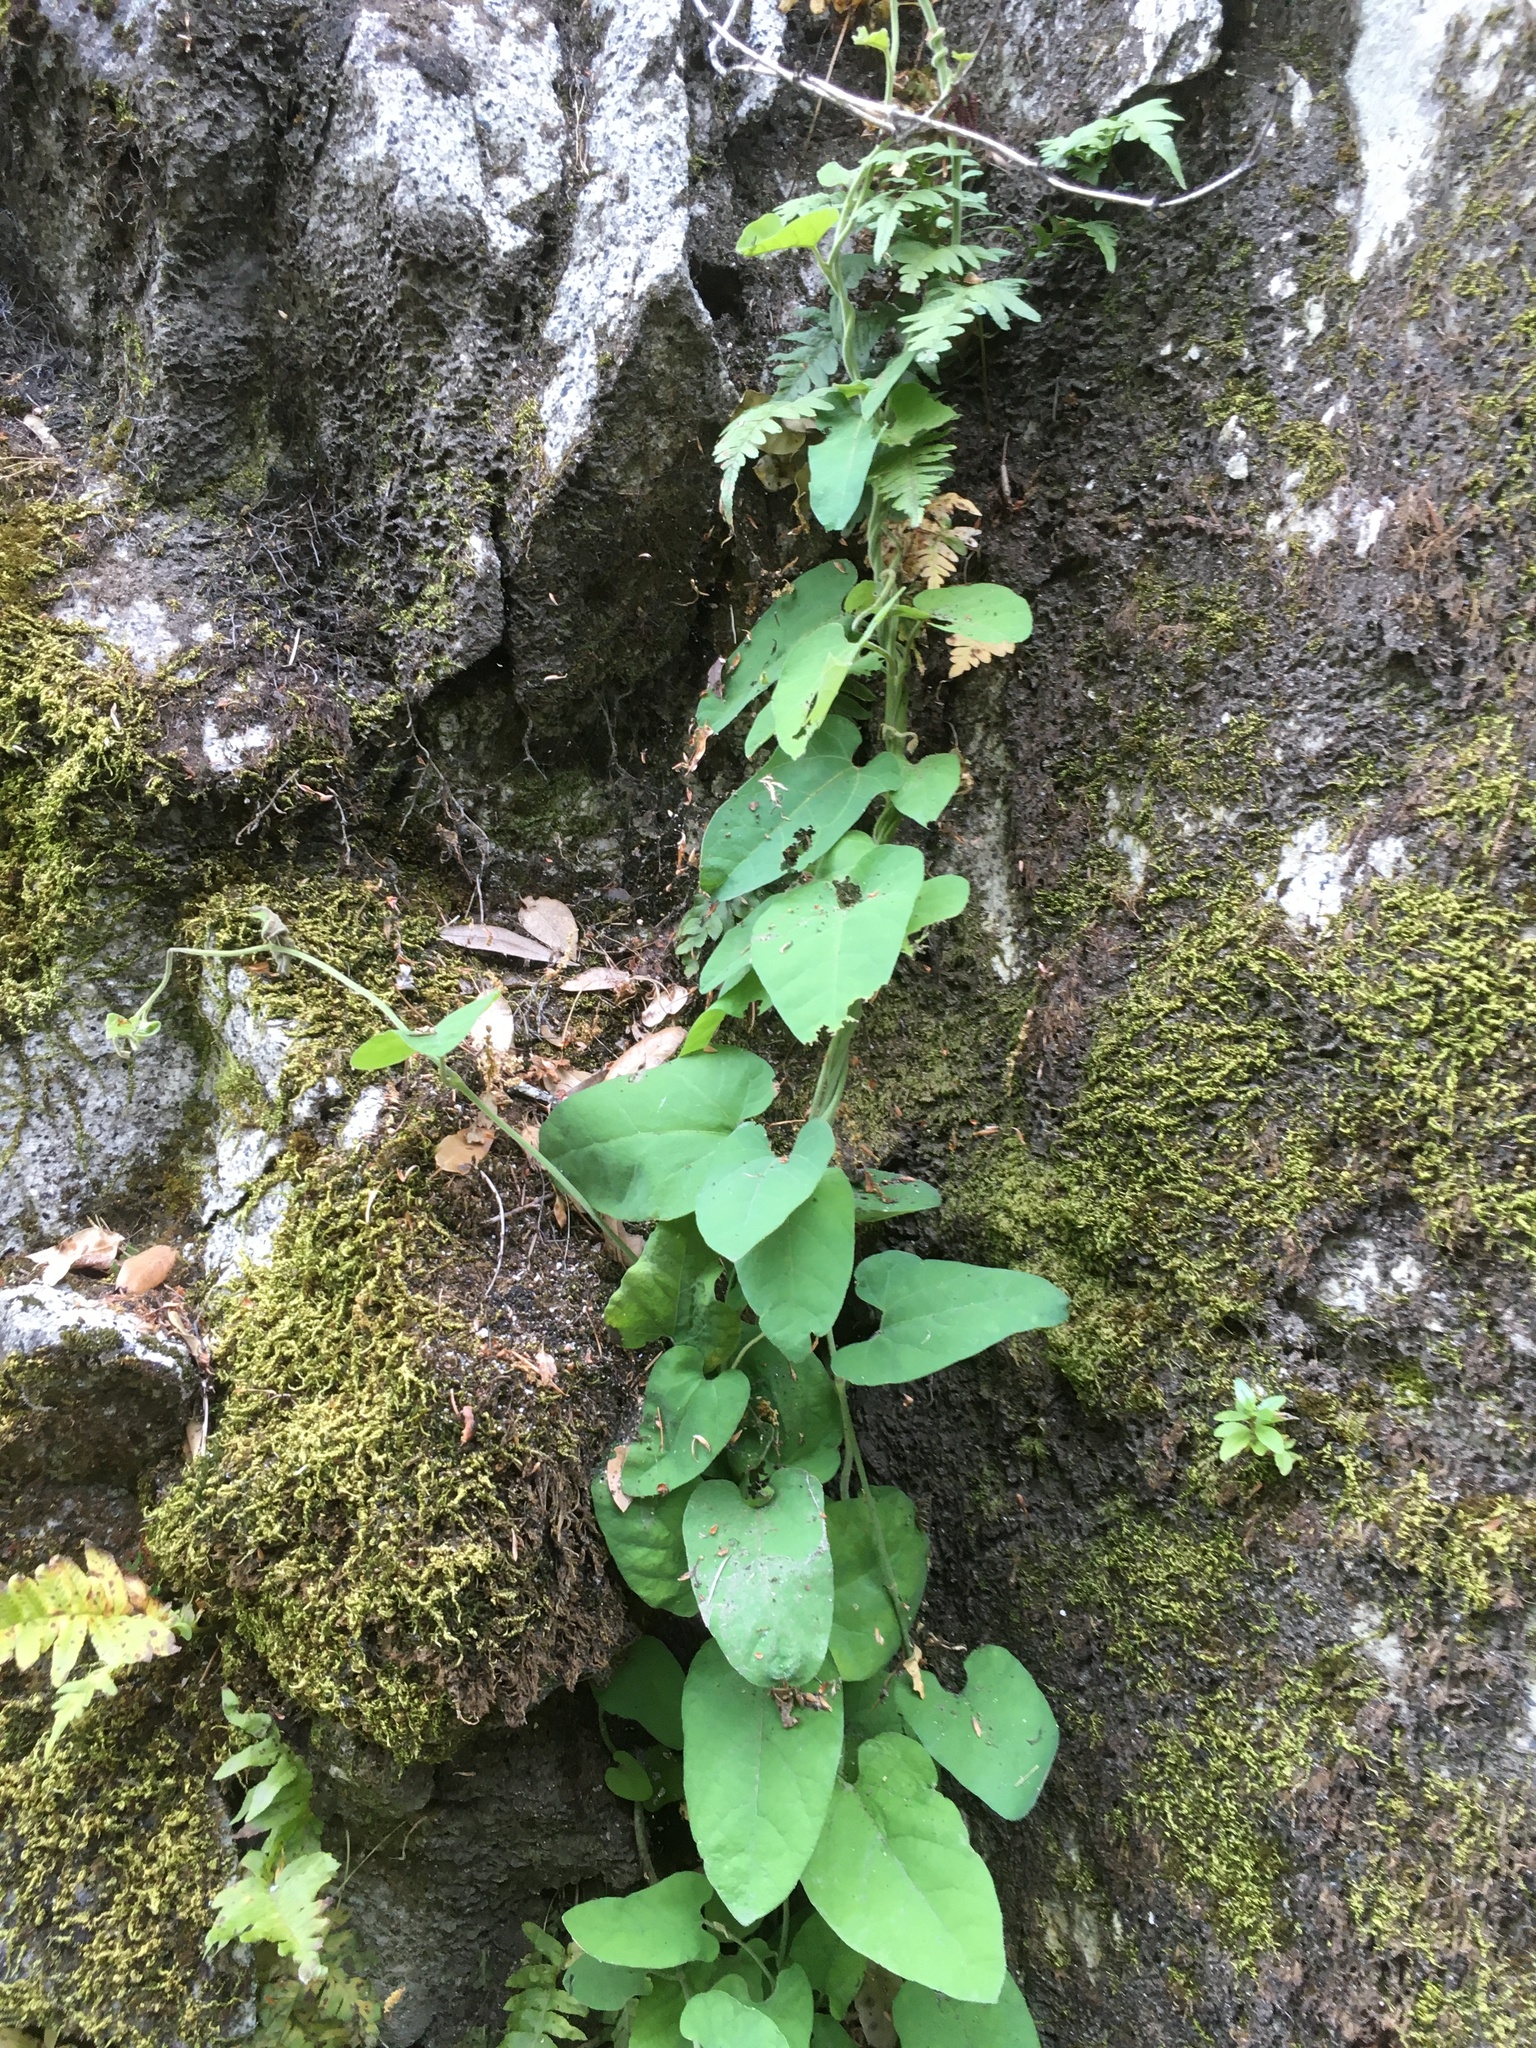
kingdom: Animalia
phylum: Arthropoda
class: Insecta
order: Lepidoptera
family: Papilionidae
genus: Battus
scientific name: Battus philenor
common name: Pipevine swallowtail
